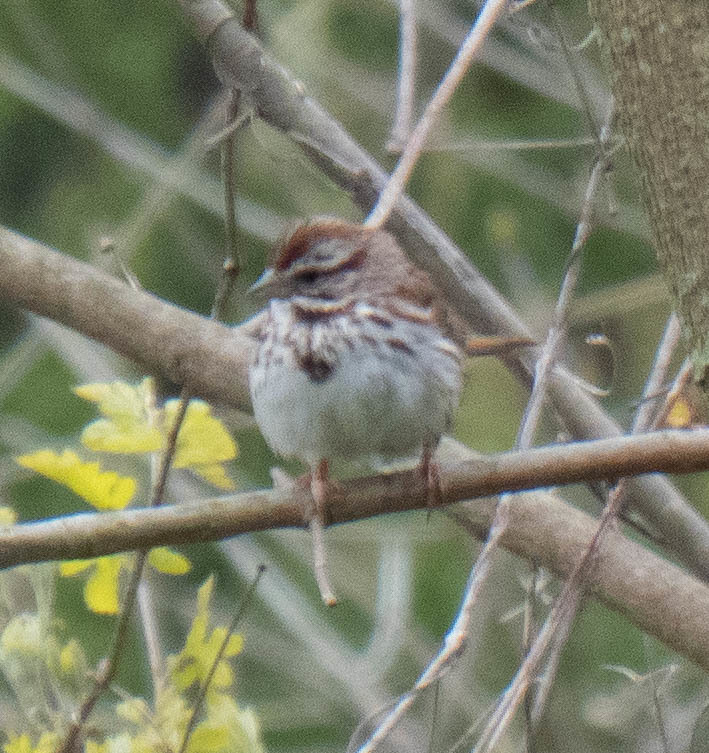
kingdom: Animalia
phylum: Chordata
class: Aves
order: Passeriformes
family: Passerellidae
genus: Melospiza
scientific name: Melospiza melodia
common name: Song sparrow
